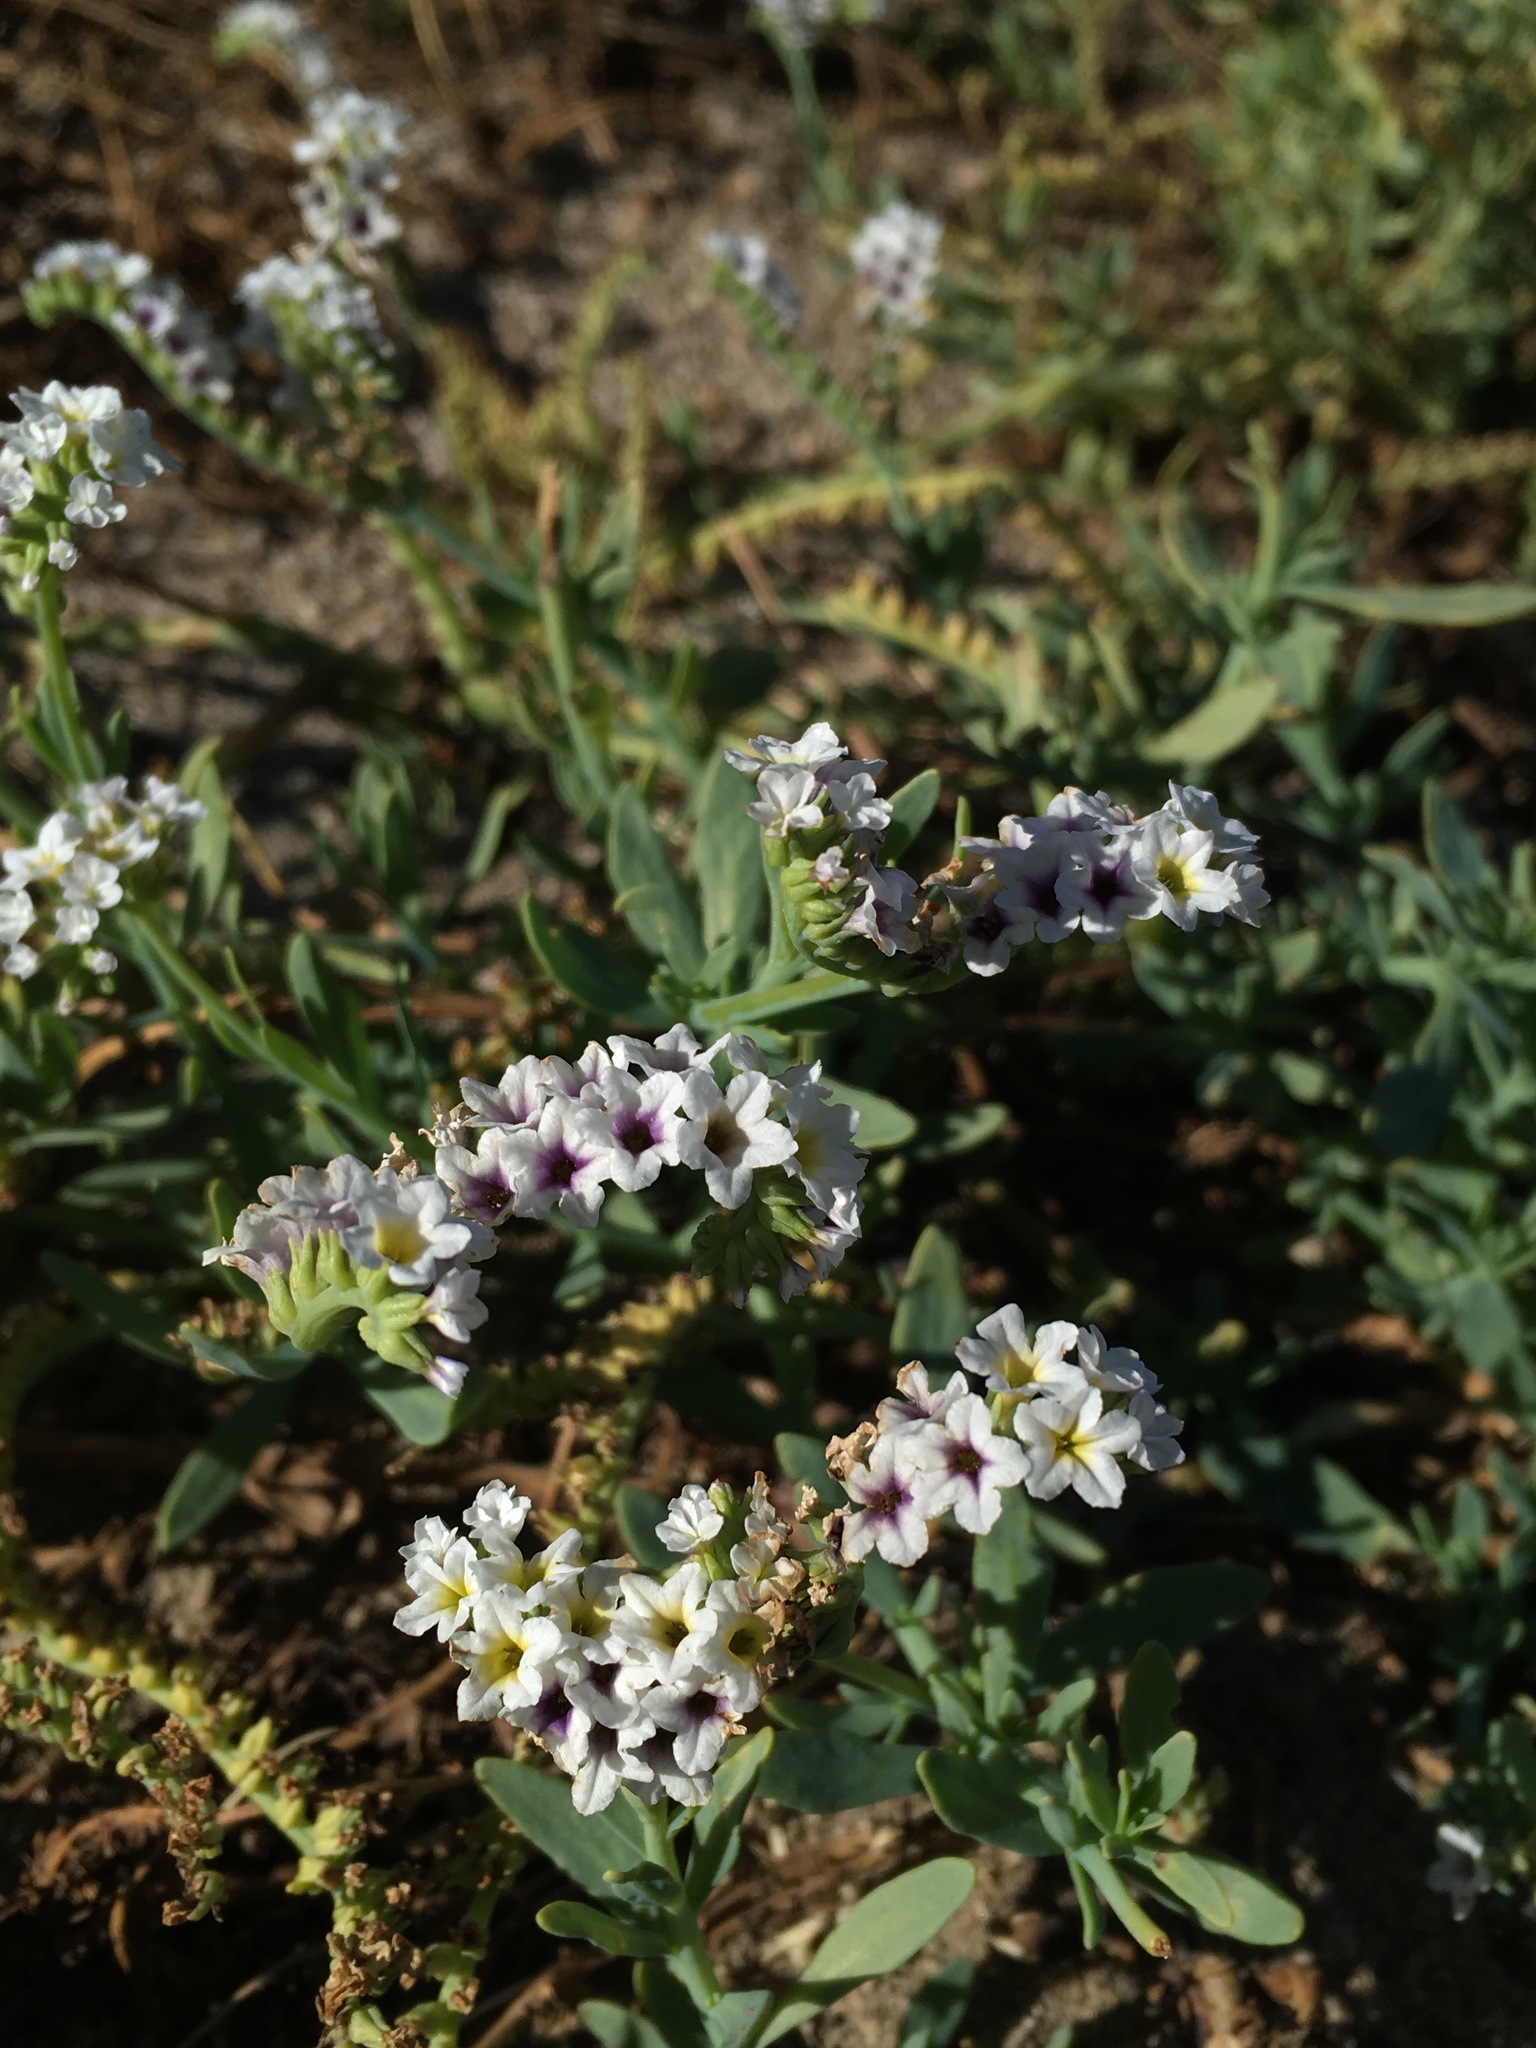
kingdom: Plantae
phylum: Tracheophyta
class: Magnoliopsida
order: Boraginales
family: Heliotropiaceae
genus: Heliotropium
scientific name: Heliotropium curassavicum
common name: Seaside heliotrope
